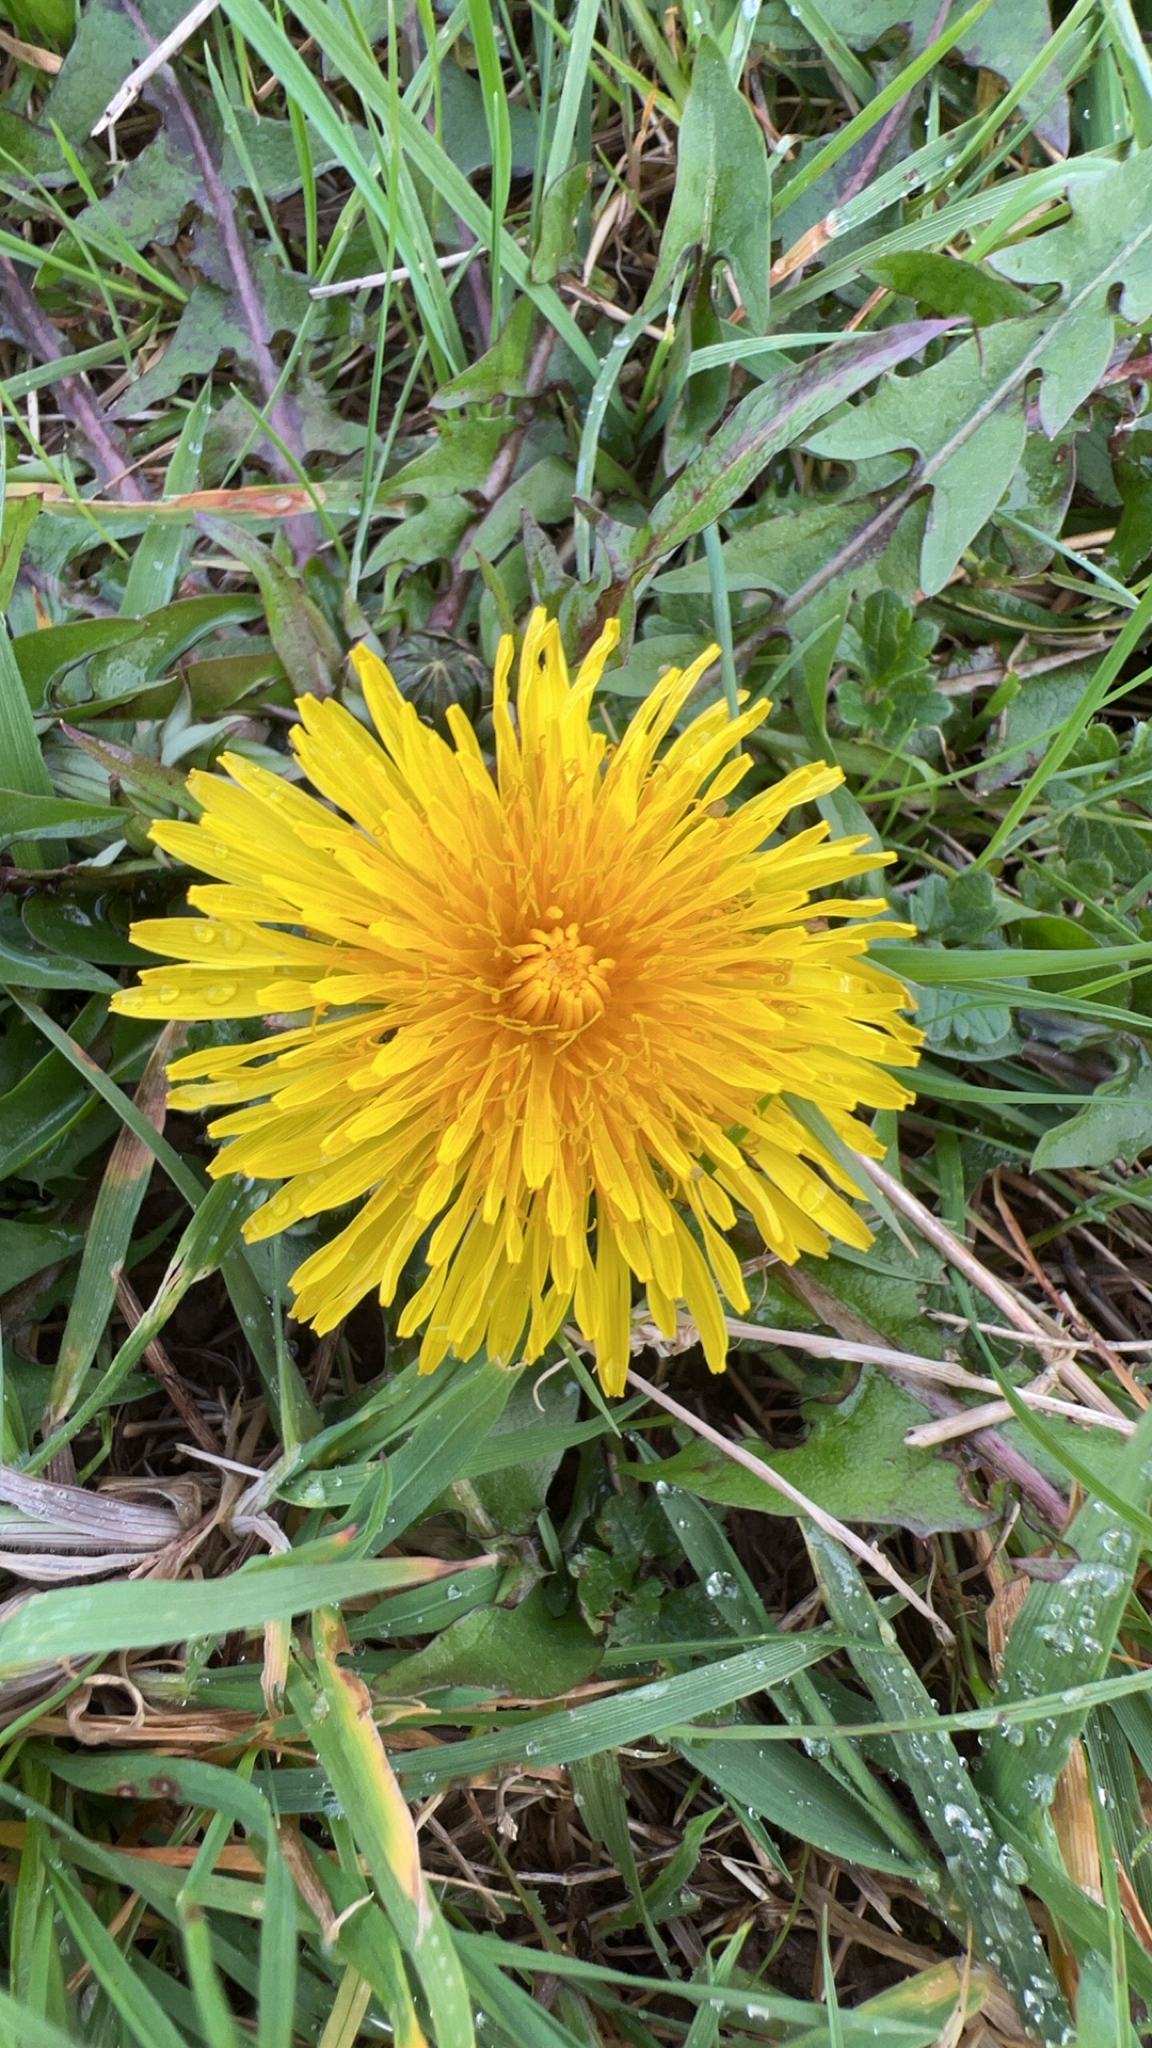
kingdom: Plantae
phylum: Tracheophyta
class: Magnoliopsida
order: Asterales
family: Asteraceae
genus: Taraxacum
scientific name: Taraxacum officinale
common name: Common dandelion
